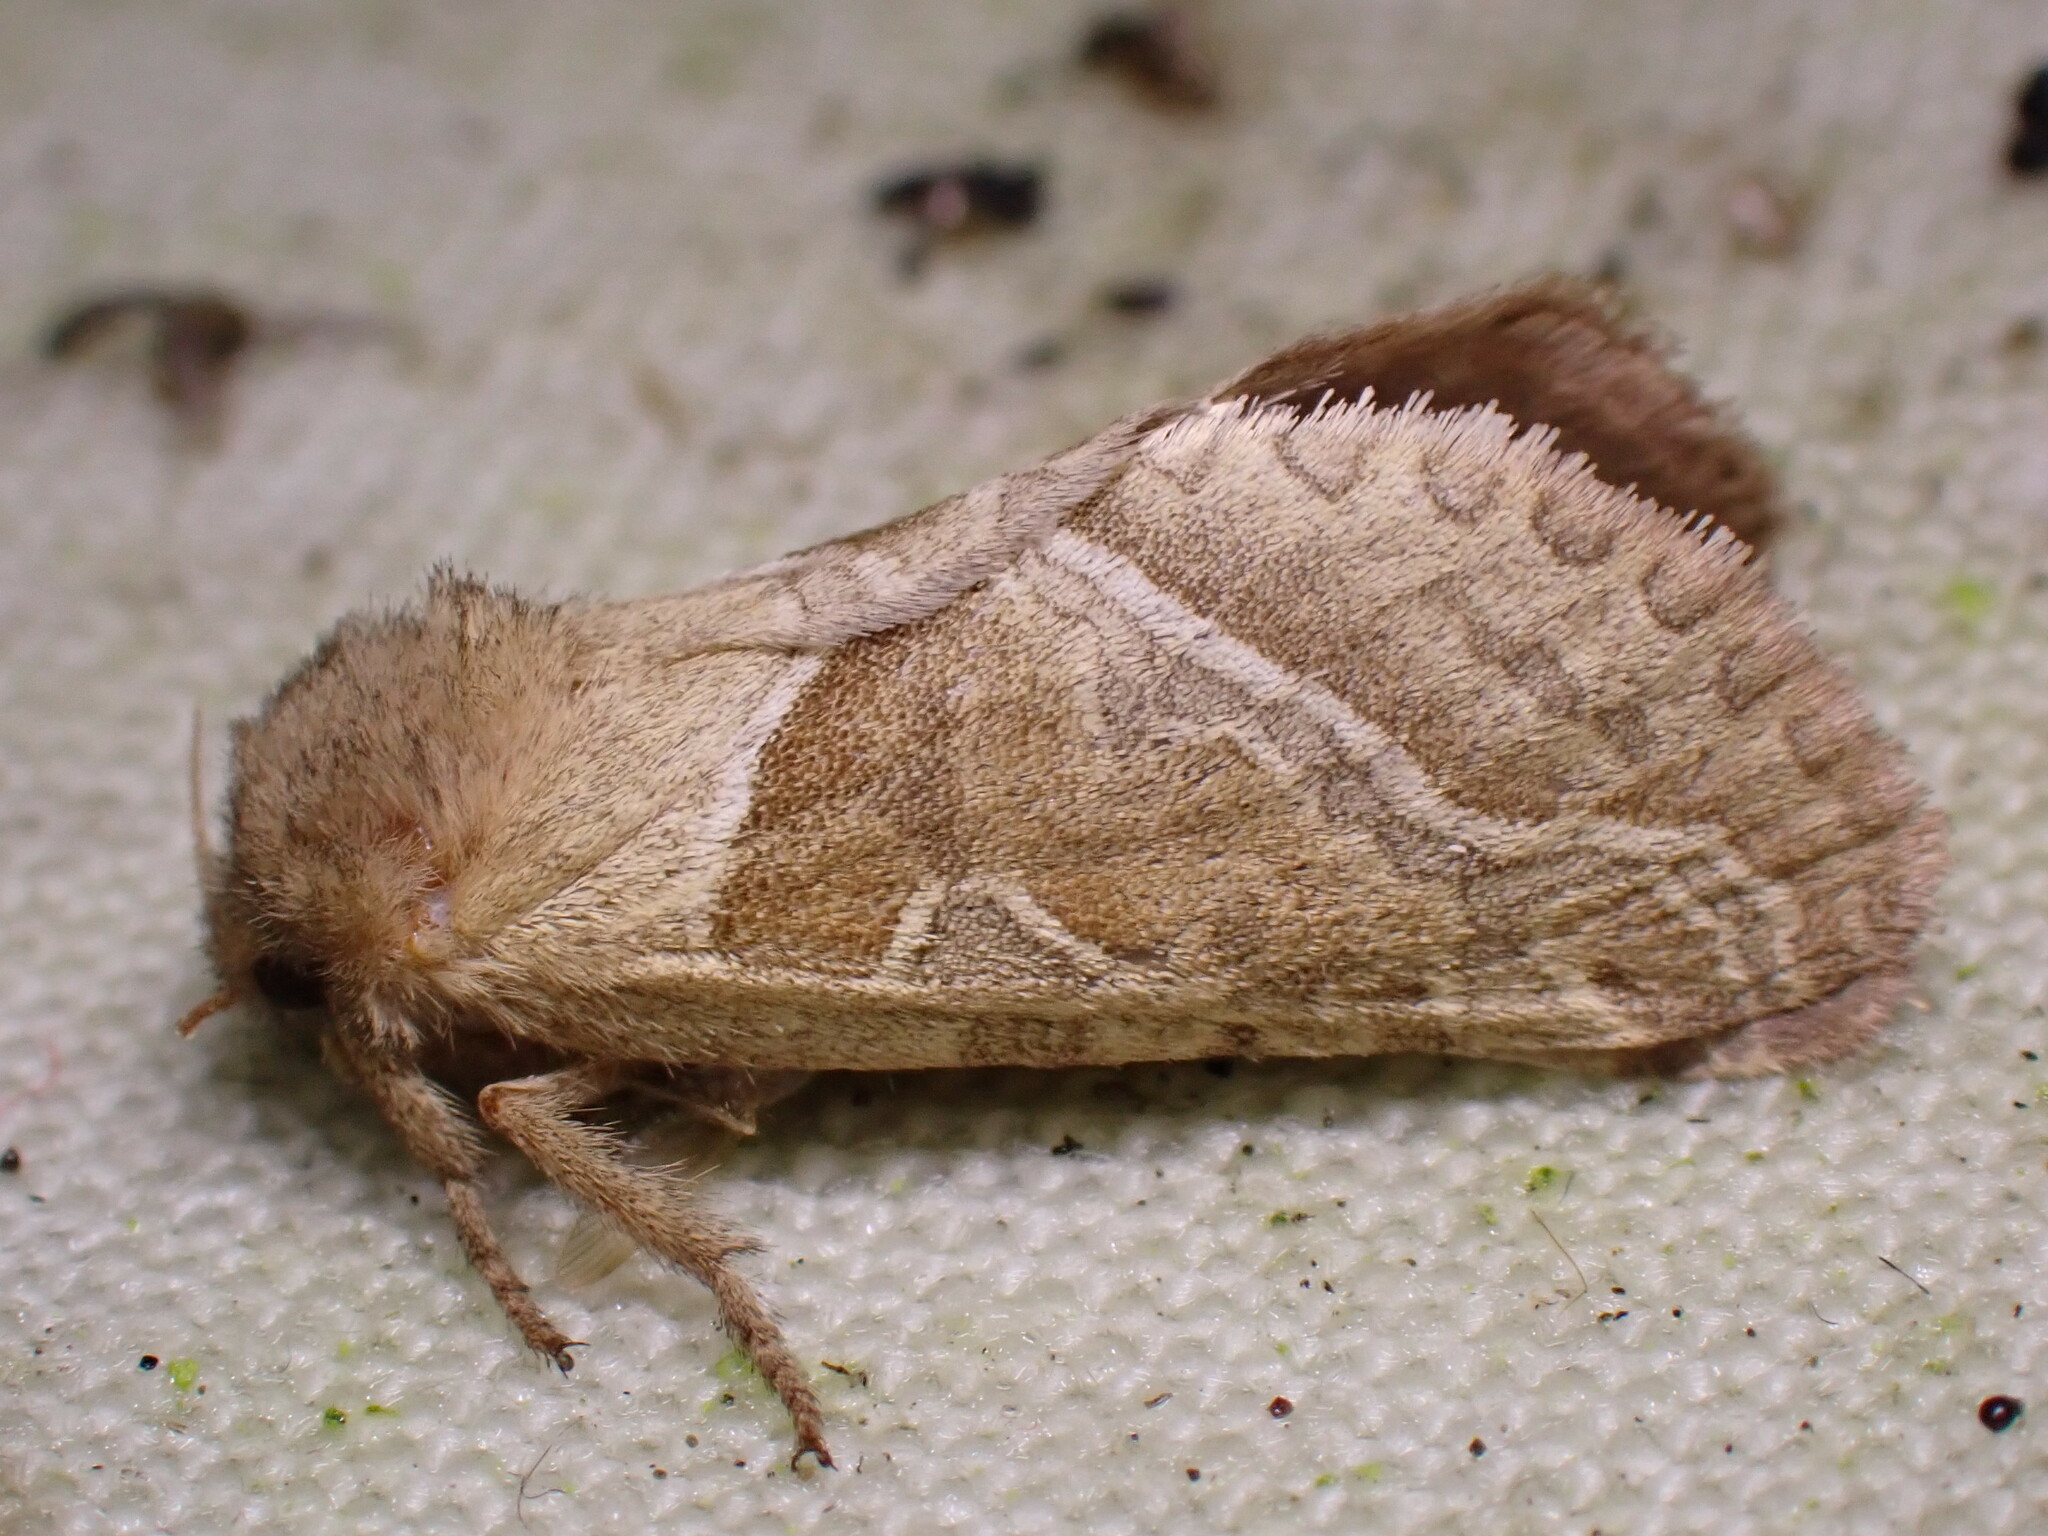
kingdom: Animalia
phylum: Arthropoda
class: Insecta
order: Lepidoptera
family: Hepialidae
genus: Triodia
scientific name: Triodia sylvina
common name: Orange swift
